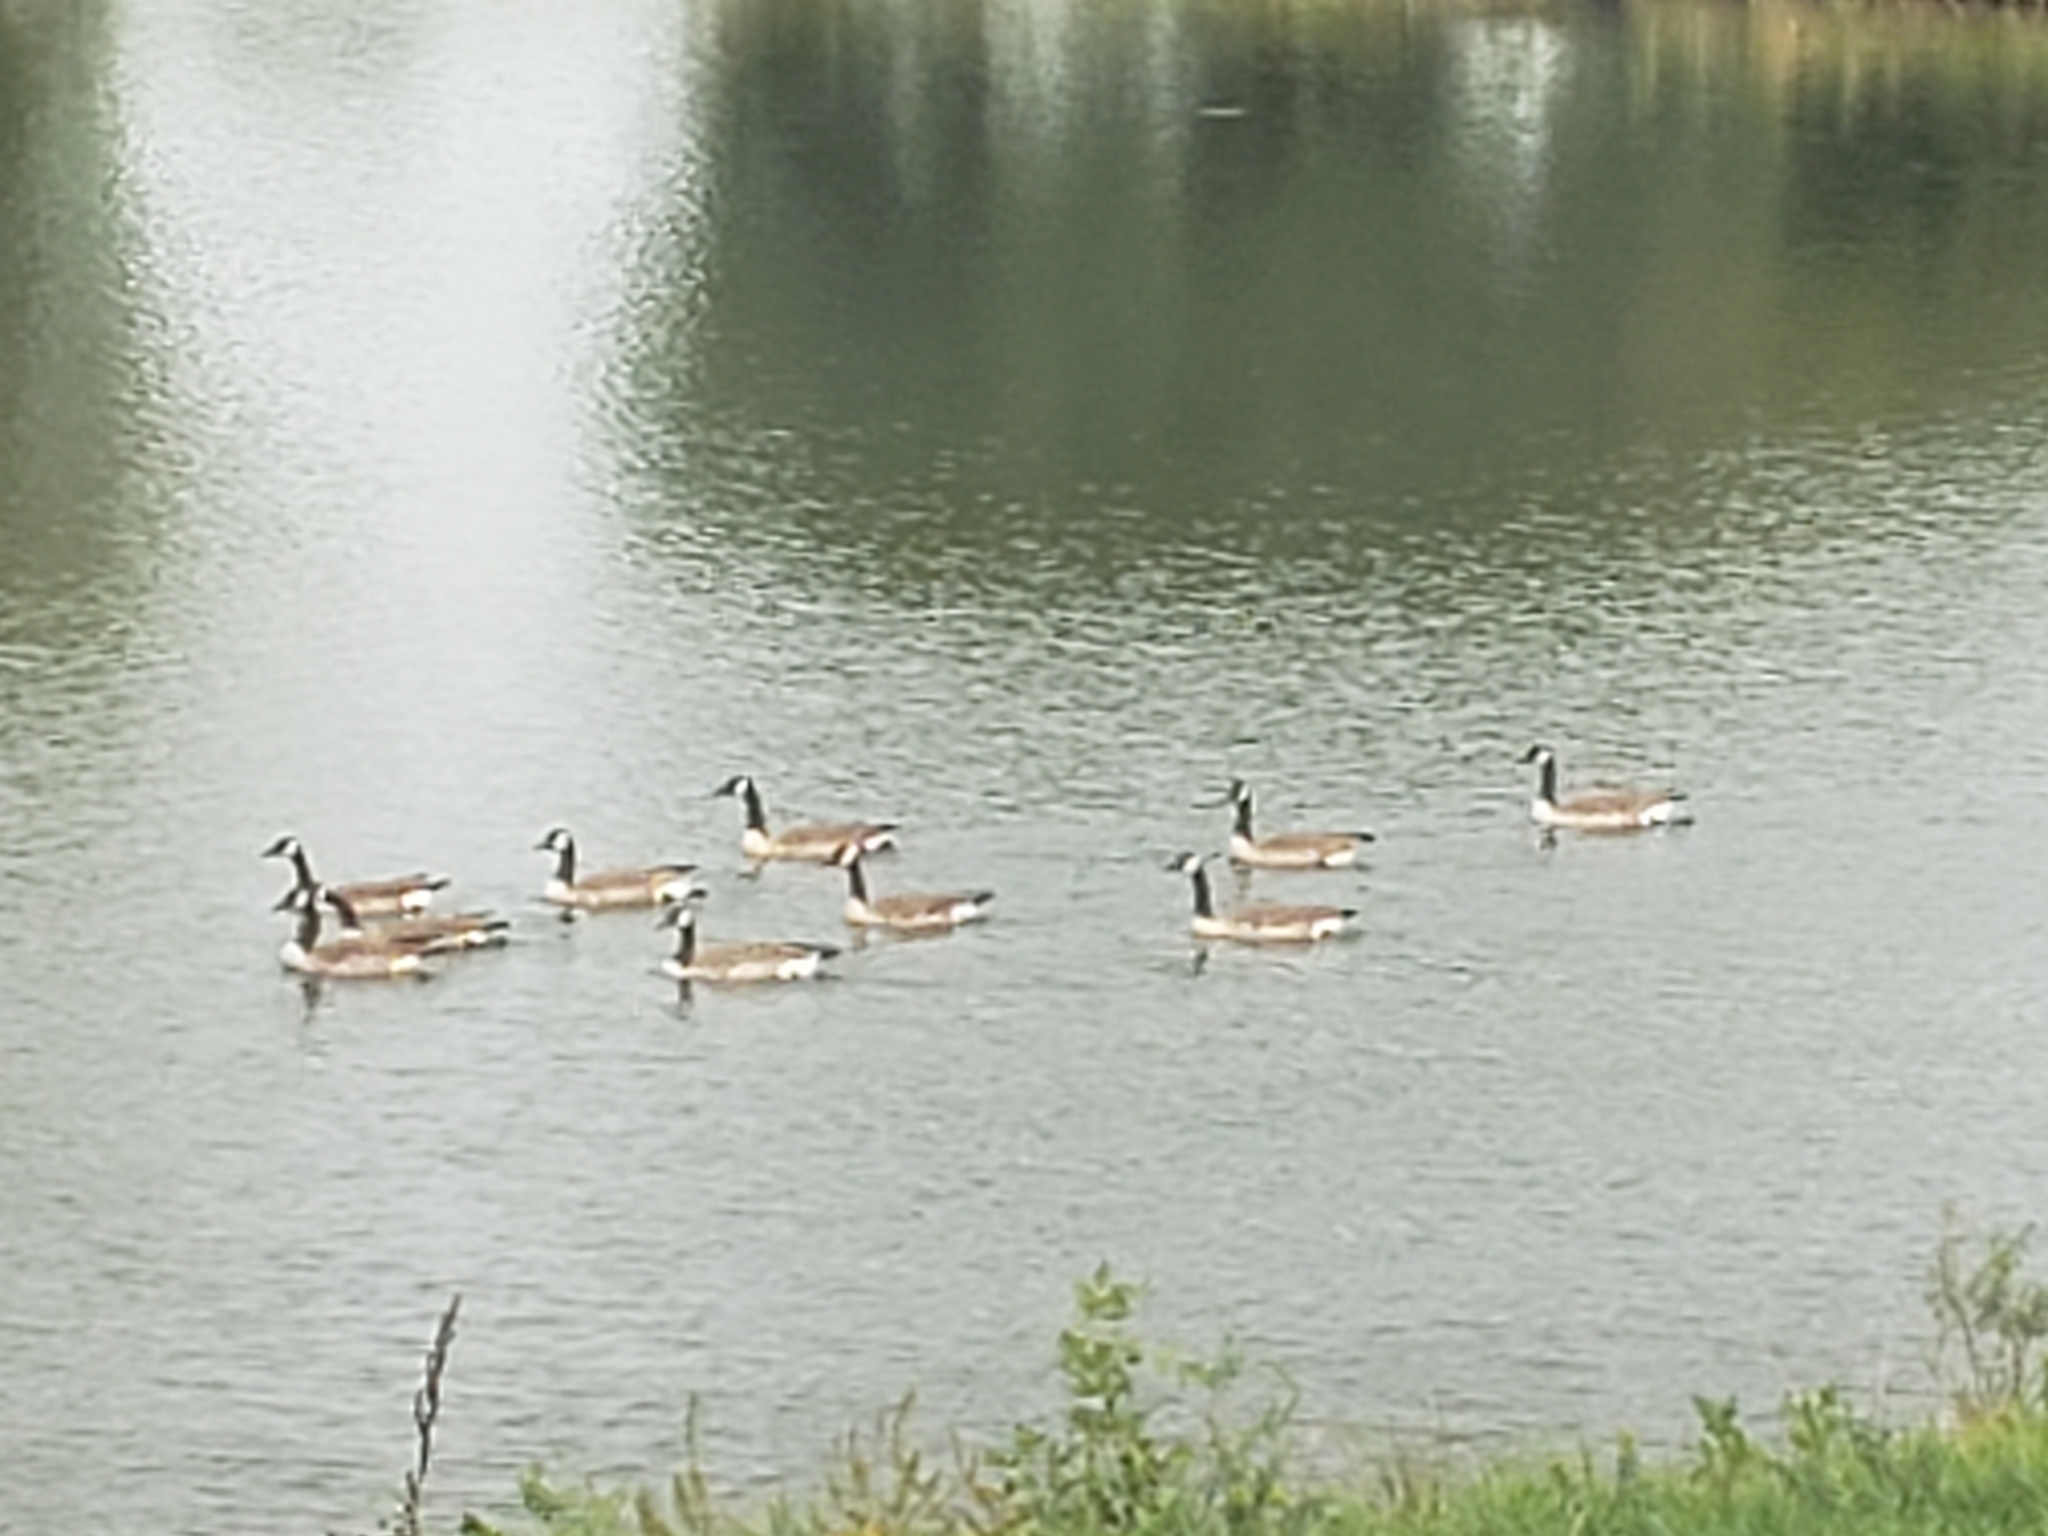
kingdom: Animalia
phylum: Chordata
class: Aves
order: Anseriformes
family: Anatidae
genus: Branta
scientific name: Branta canadensis
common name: Canada goose
